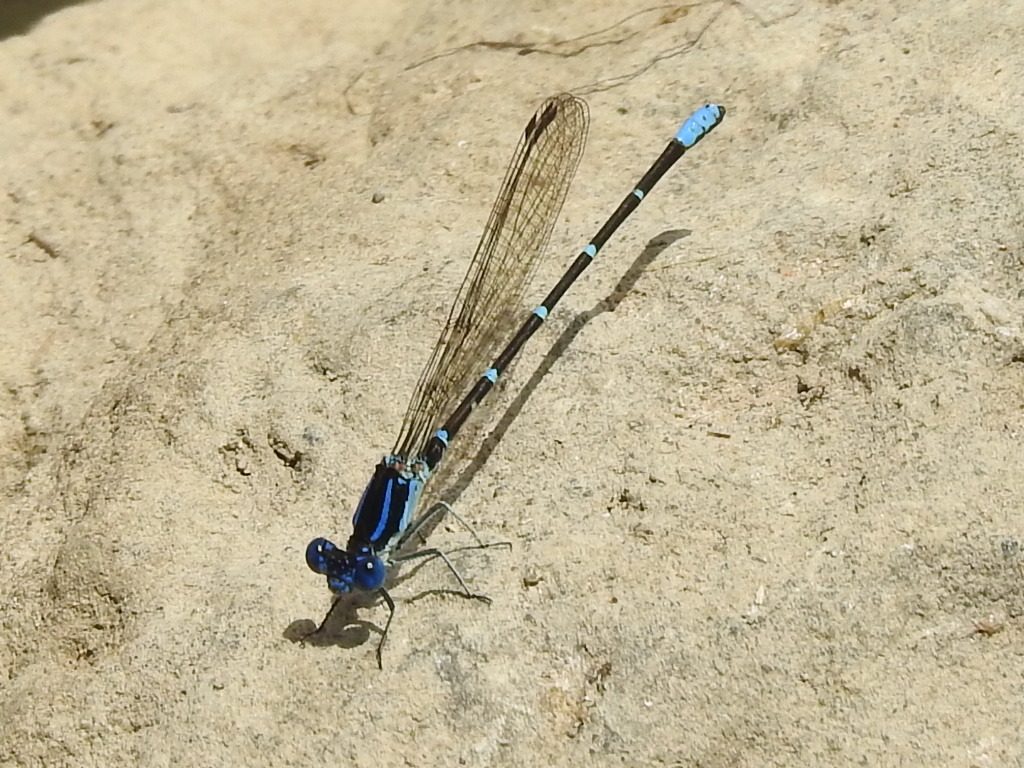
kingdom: Animalia
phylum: Arthropoda
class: Insecta
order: Odonata
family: Coenagrionidae
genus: Argia
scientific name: Argia sedula
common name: Blue-ringed dancer
